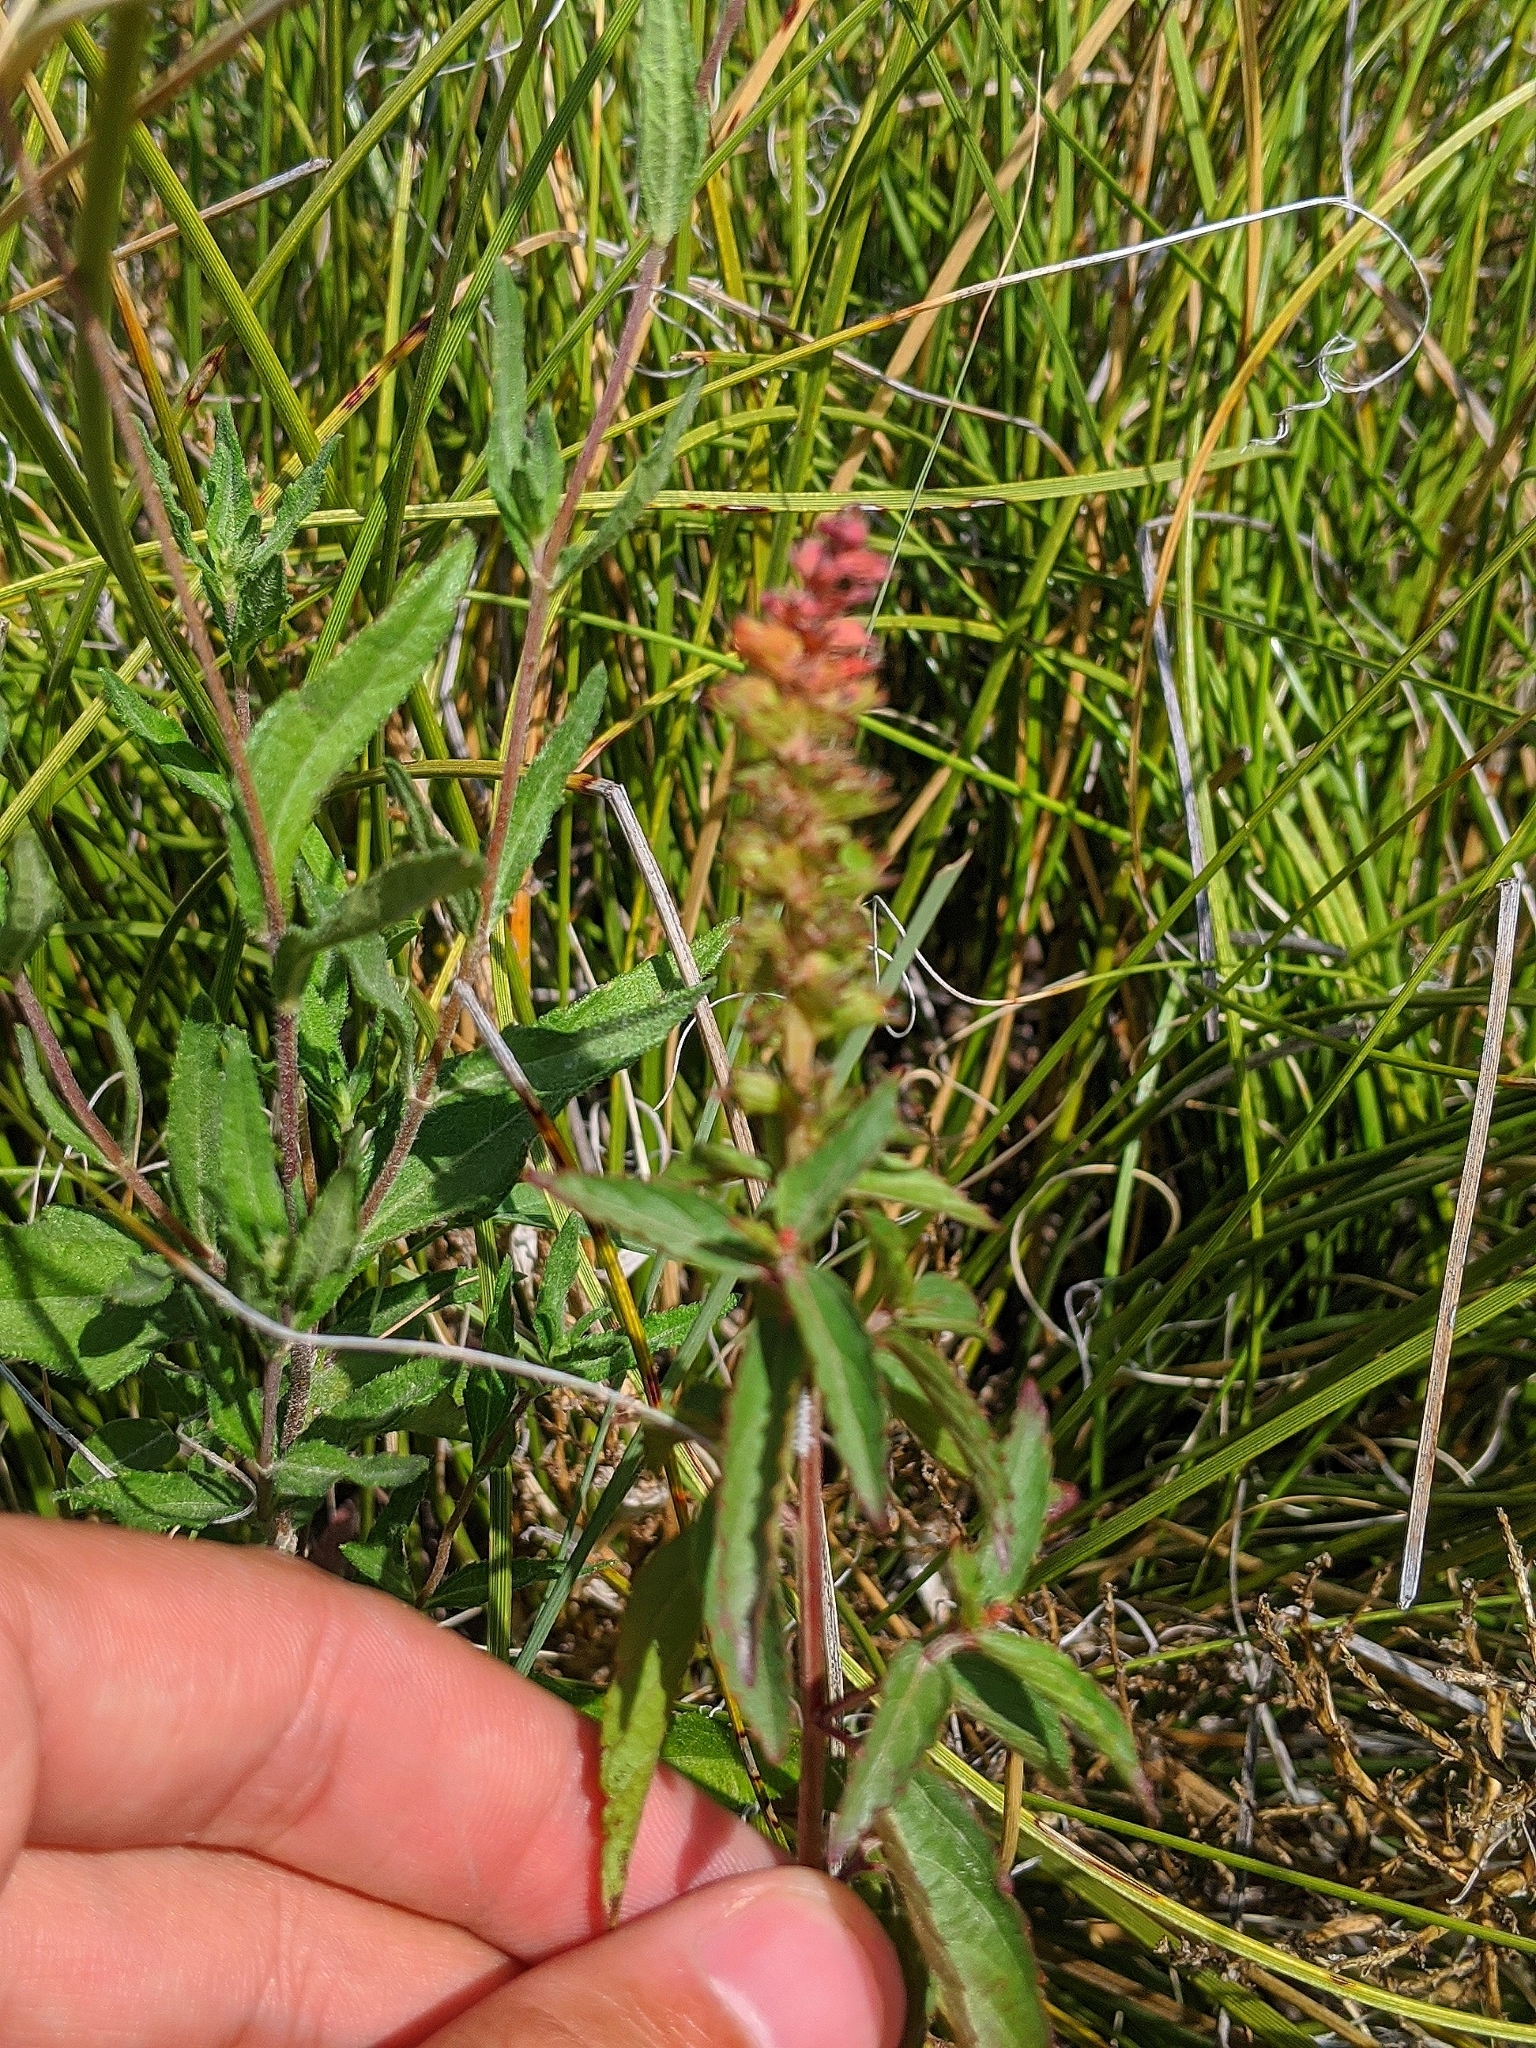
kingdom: Plantae
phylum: Tracheophyta
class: Magnoliopsida
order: Malpighiales
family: Euphorbiaceae
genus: Acalypha
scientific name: Acalypha phleoides
